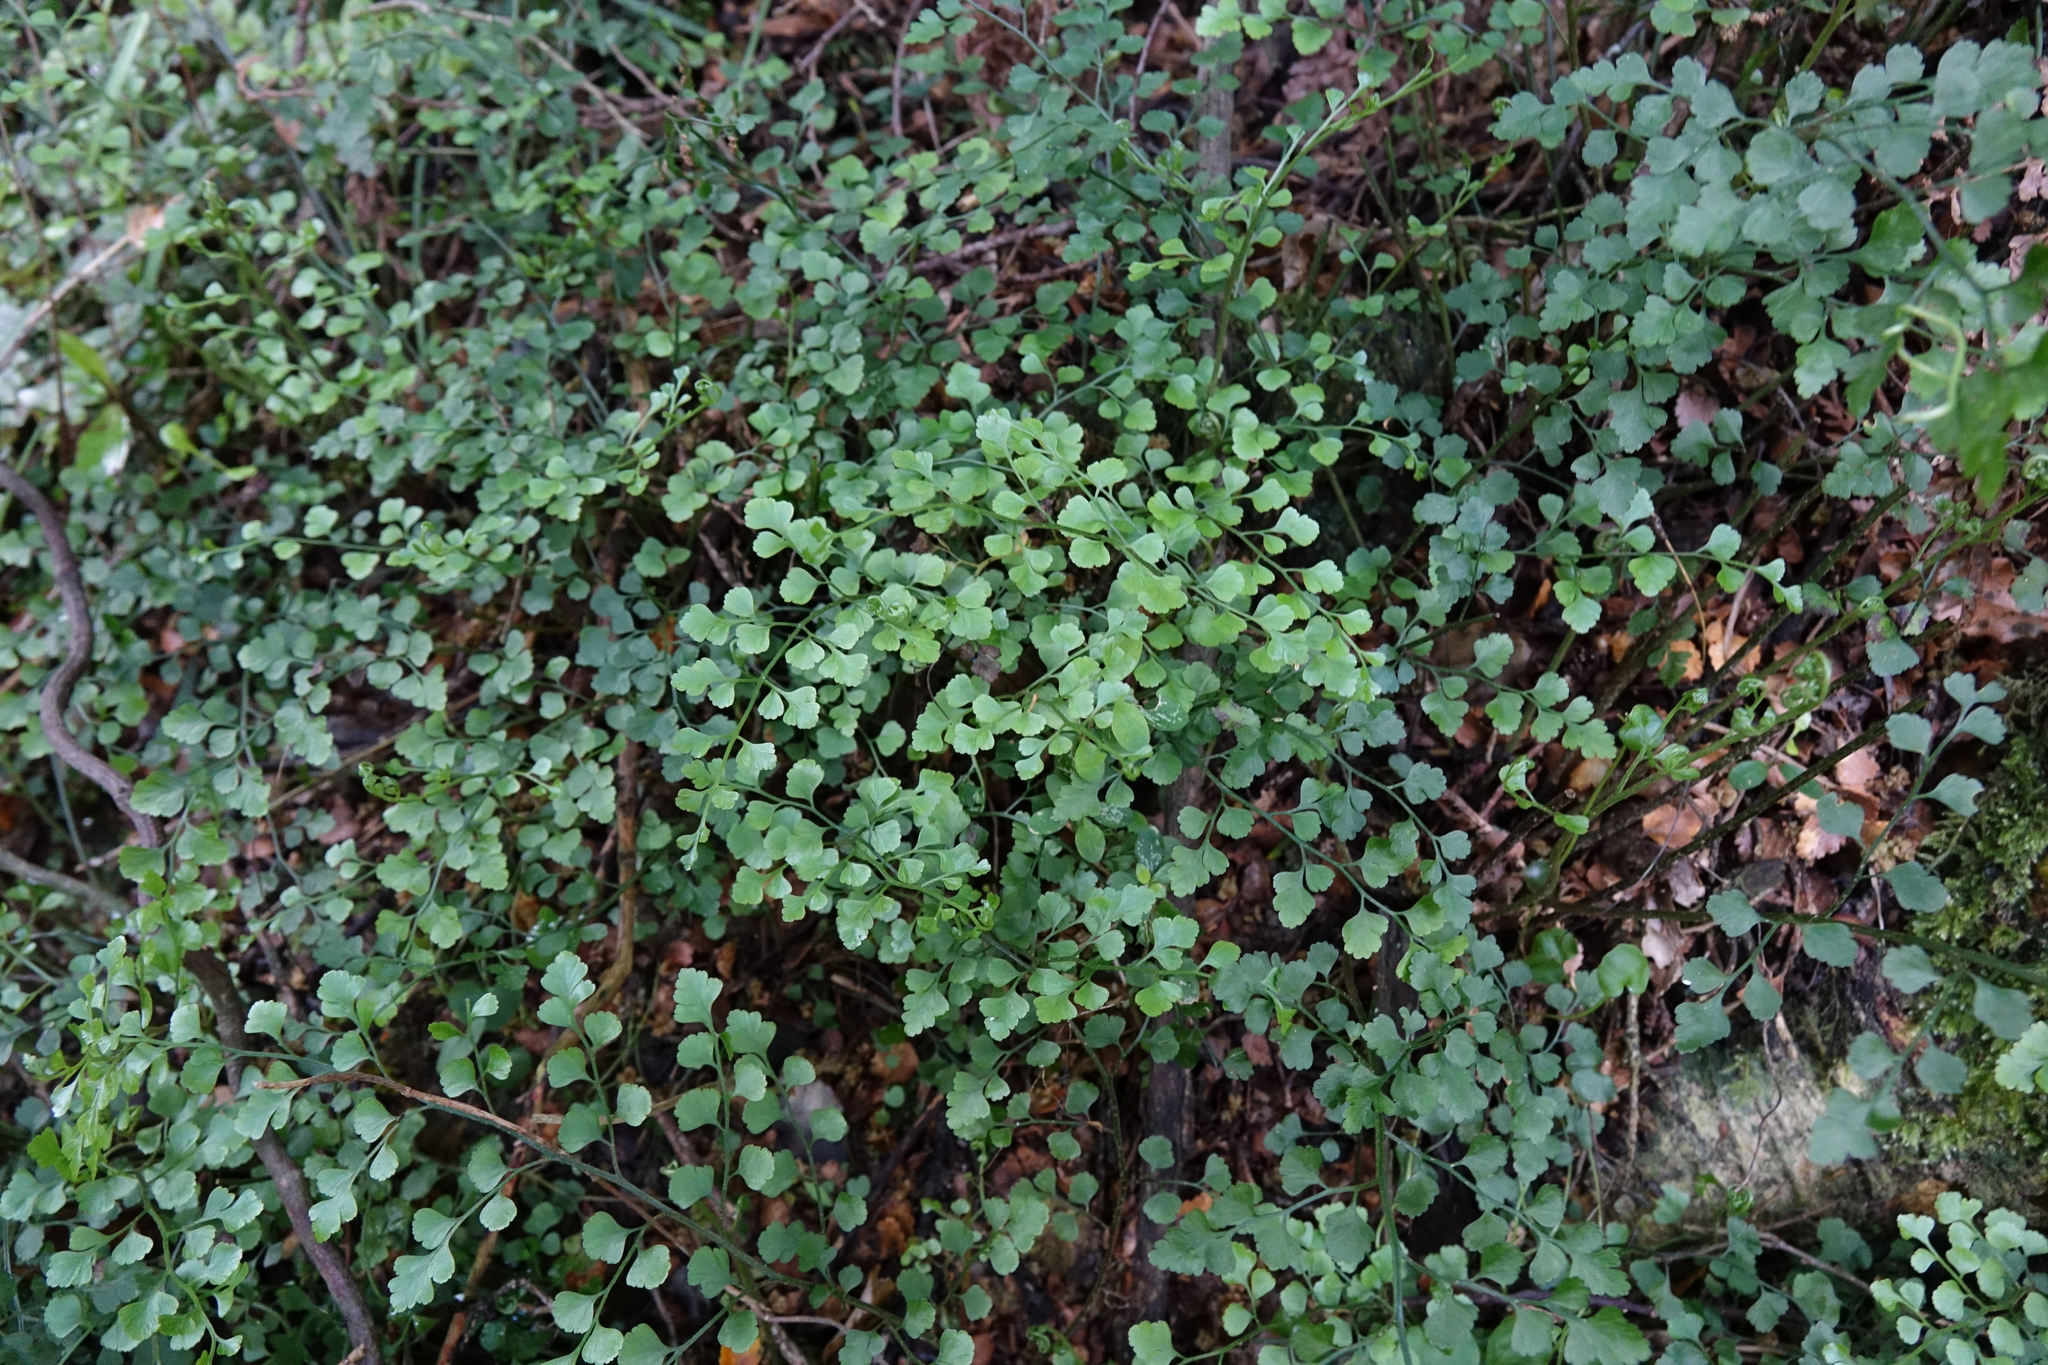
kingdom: Plantae
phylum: Tracheophyta
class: Polypodiopsida
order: Polypodiales
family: Aspleniaceae
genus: Asplenium
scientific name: Asplenium hookerianum
